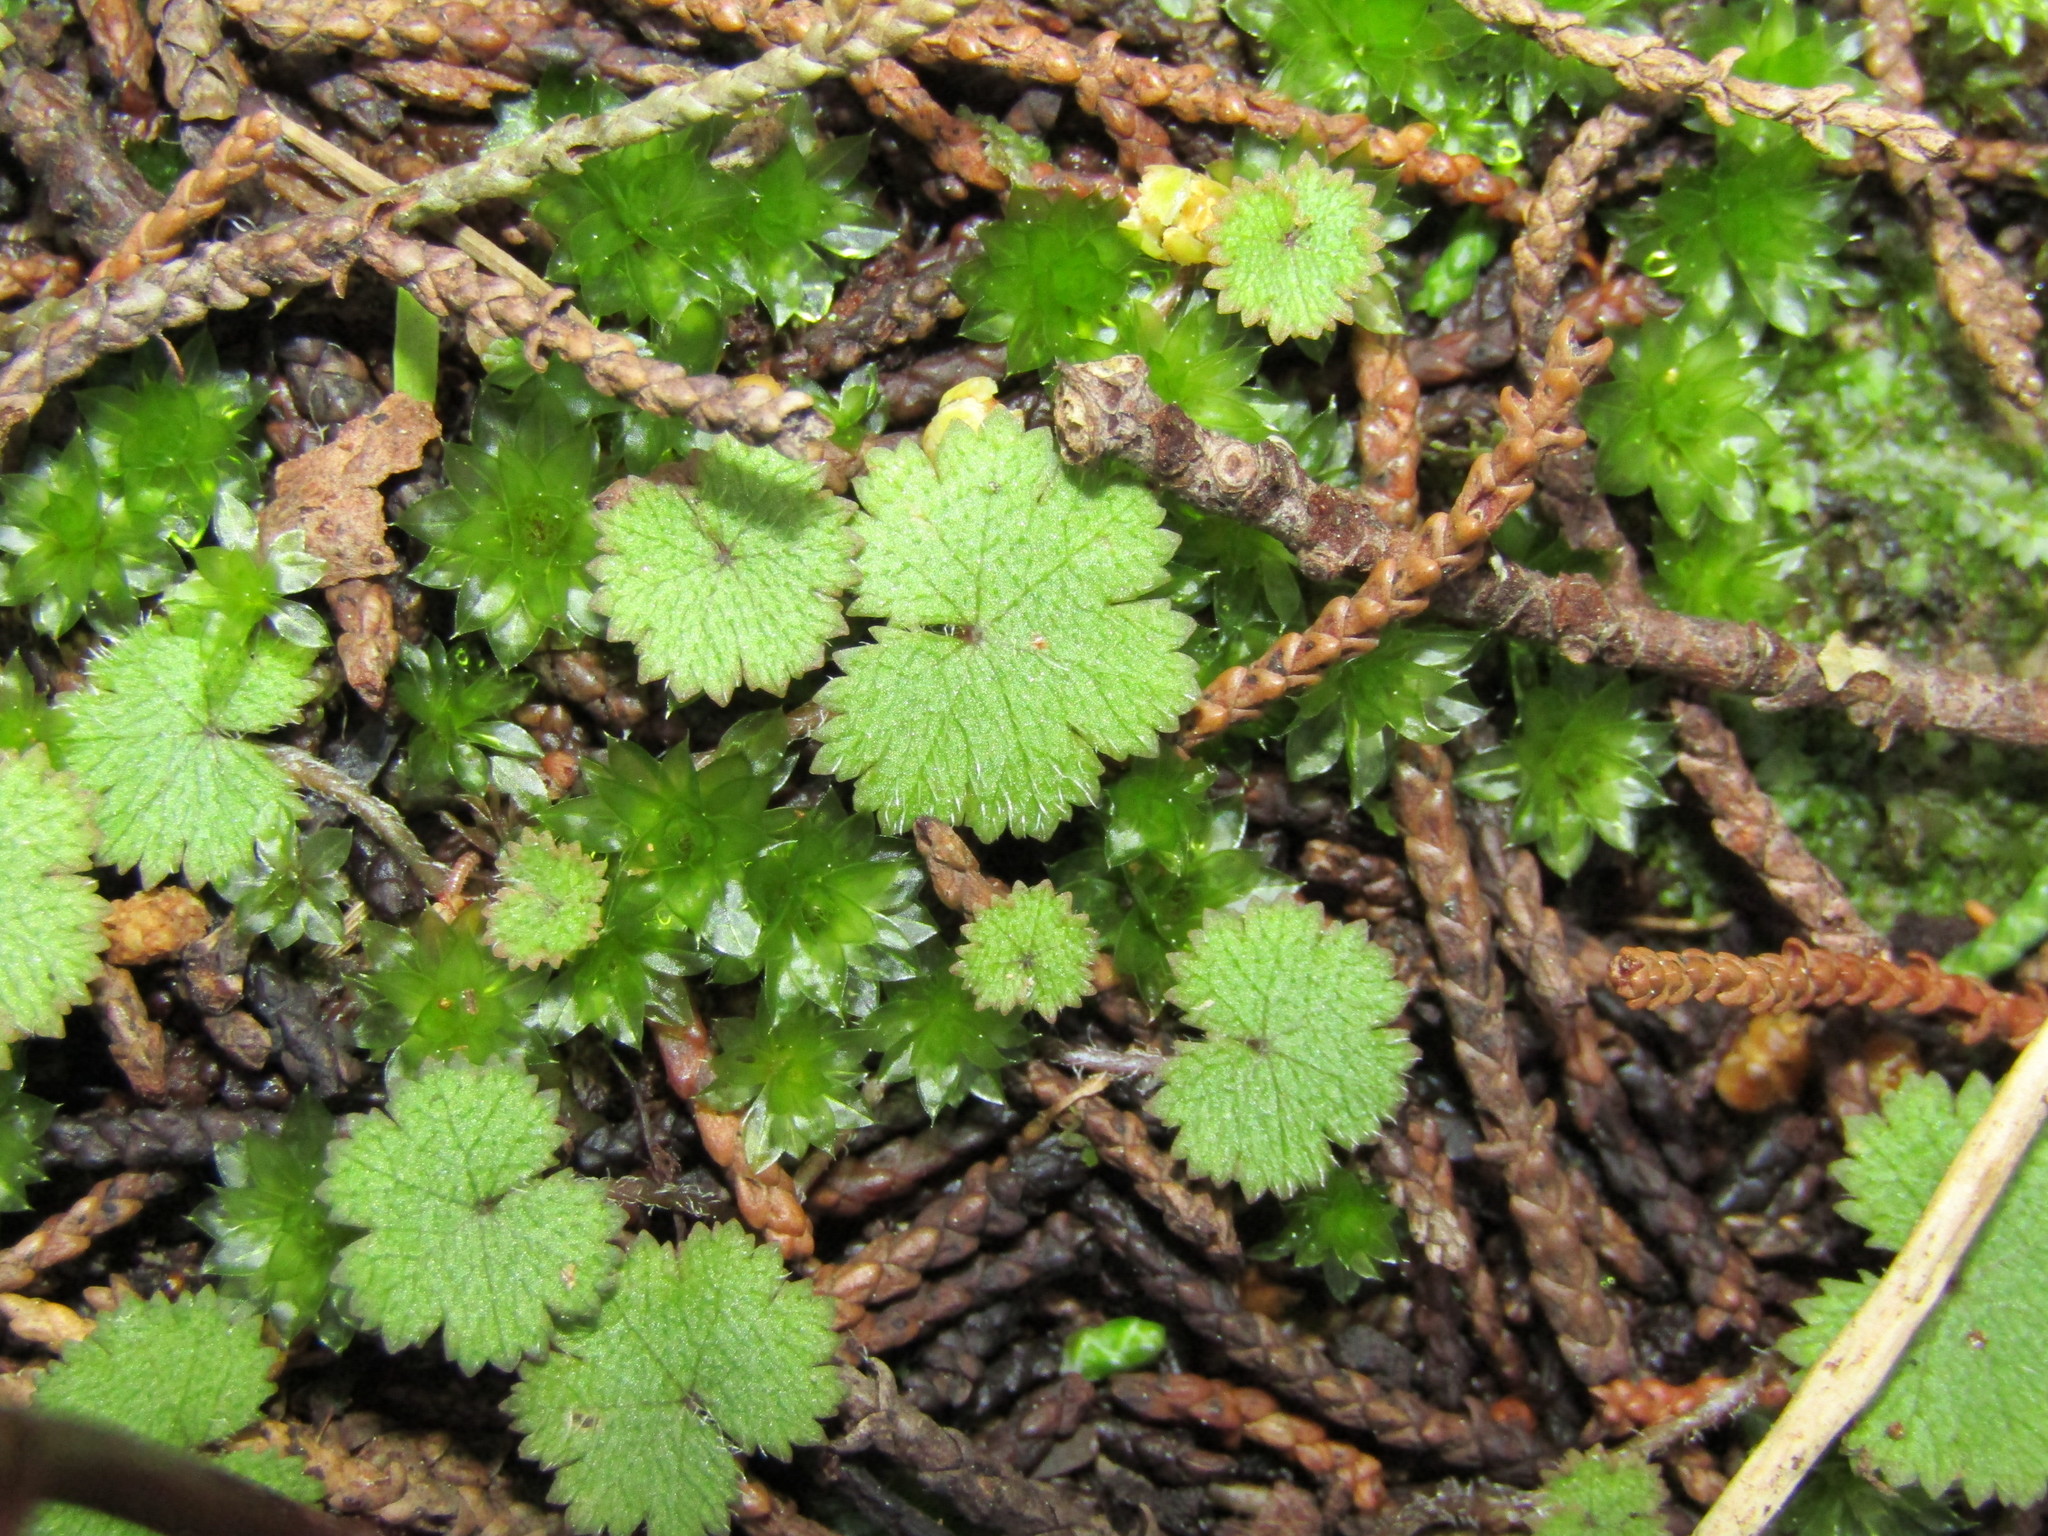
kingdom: Plantae
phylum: Tracheophyta
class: Magnoliopsida
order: Apiales
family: Araliaceae
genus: Hydrocotyle
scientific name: Hydrocotyle moschata
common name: Hairy pennywort
